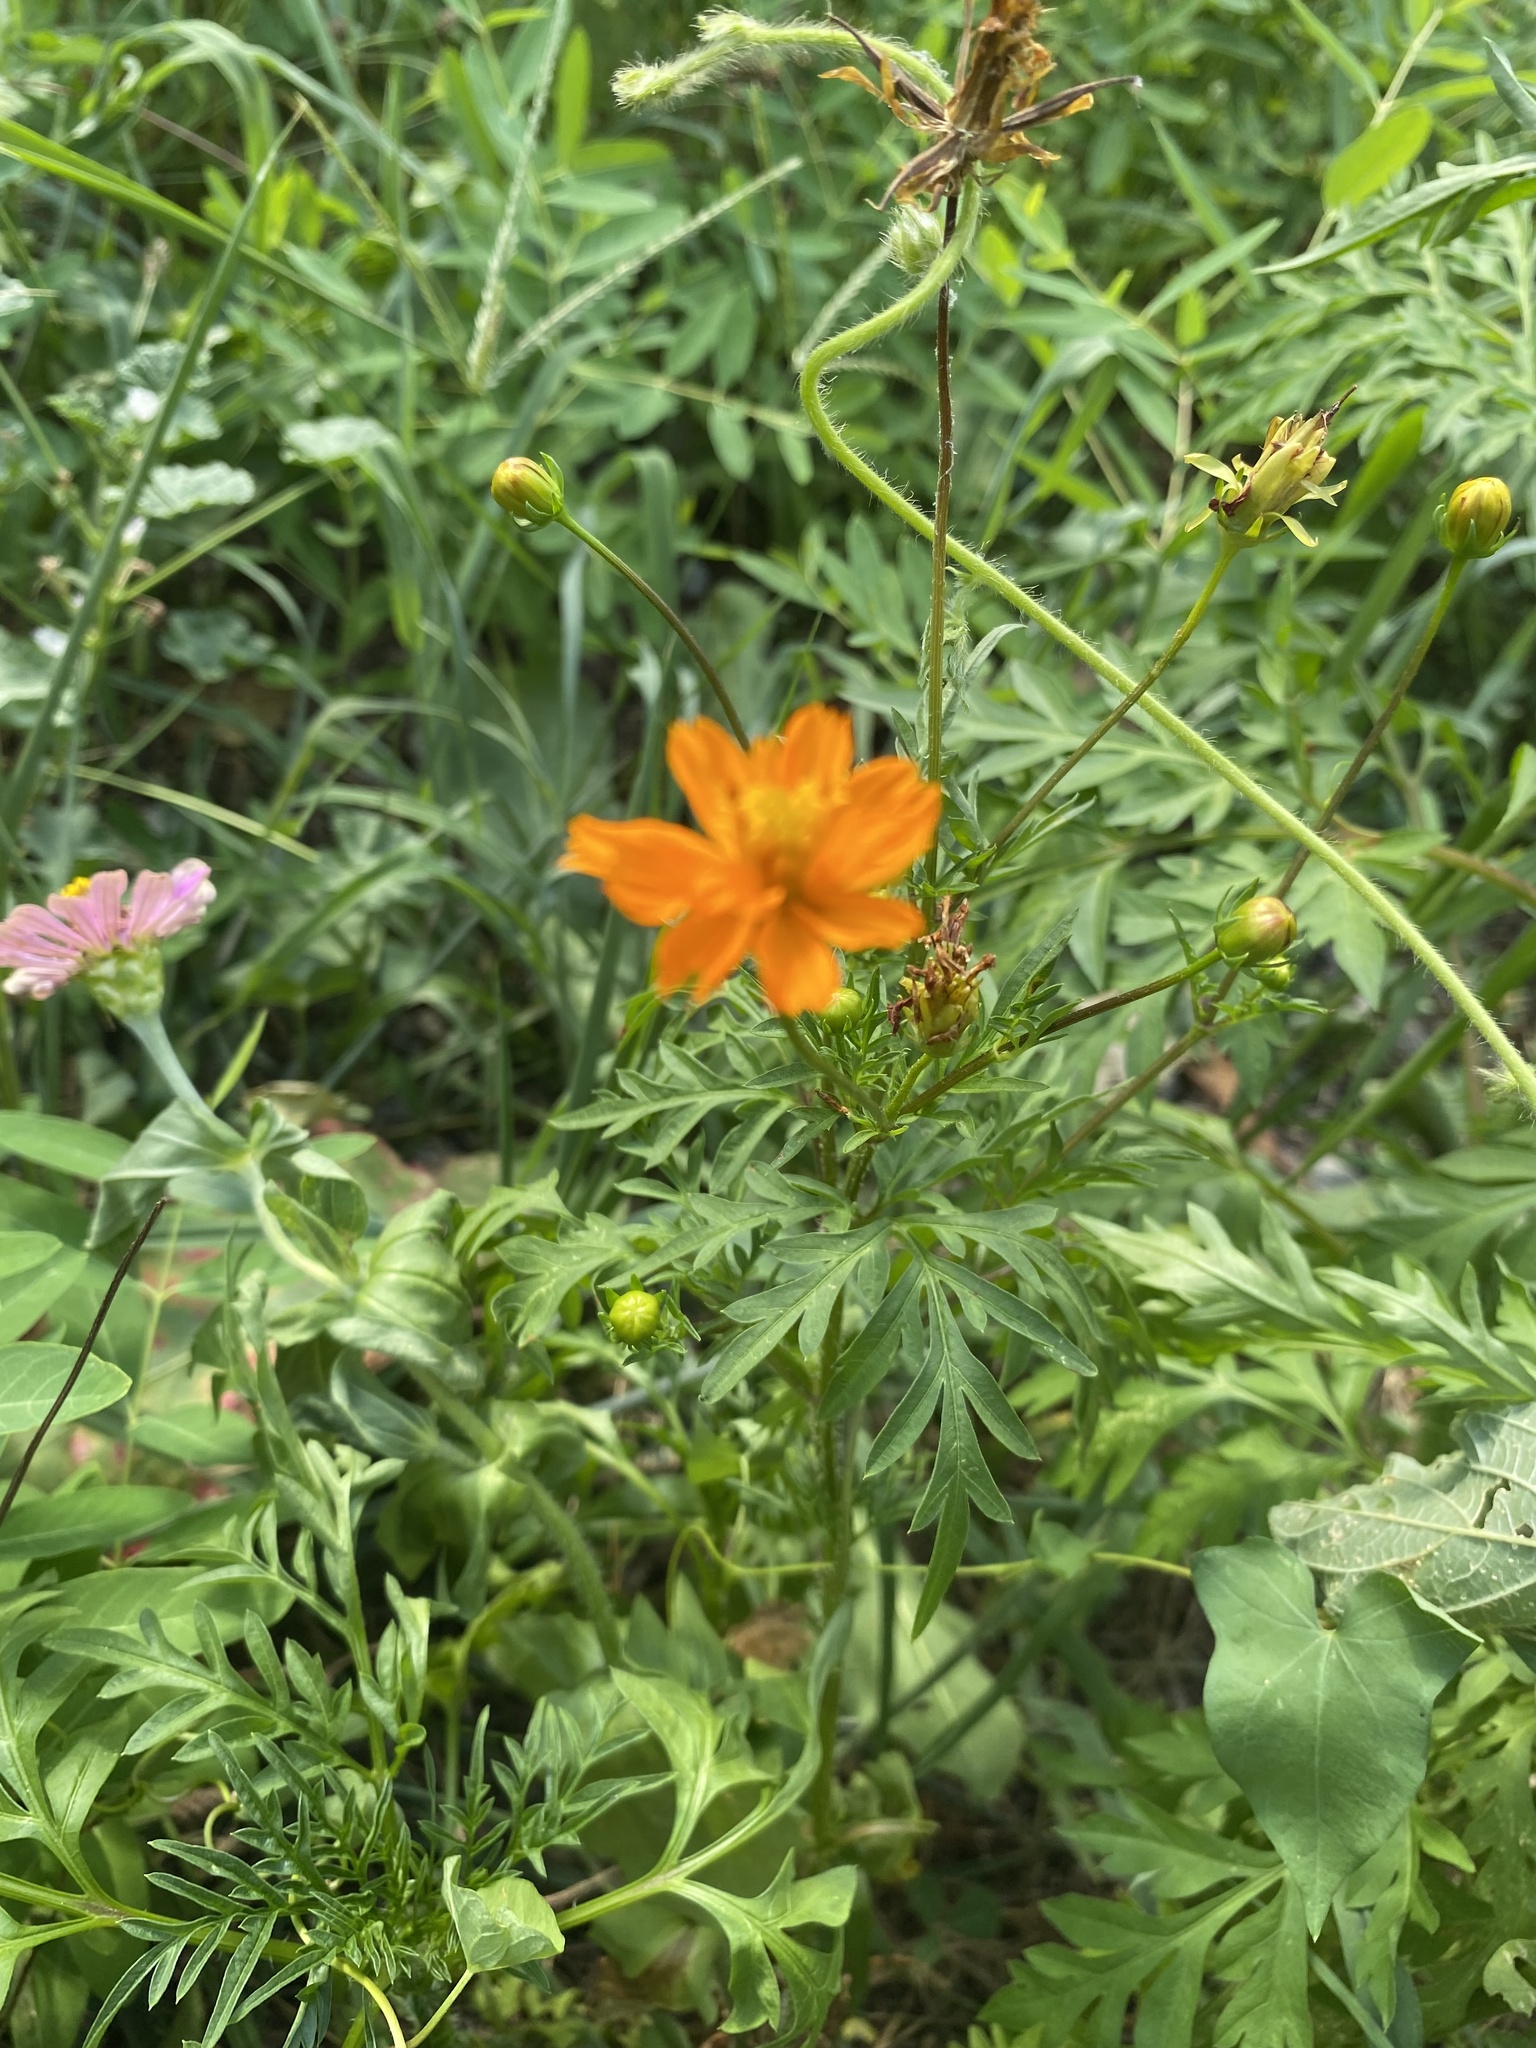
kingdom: Plantae
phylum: Tracheophyta
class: Magnoliopsida
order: Asterales
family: Asteraceae
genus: Cosmos
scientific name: Cosmos sulphureus
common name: Sulphur cosmos
